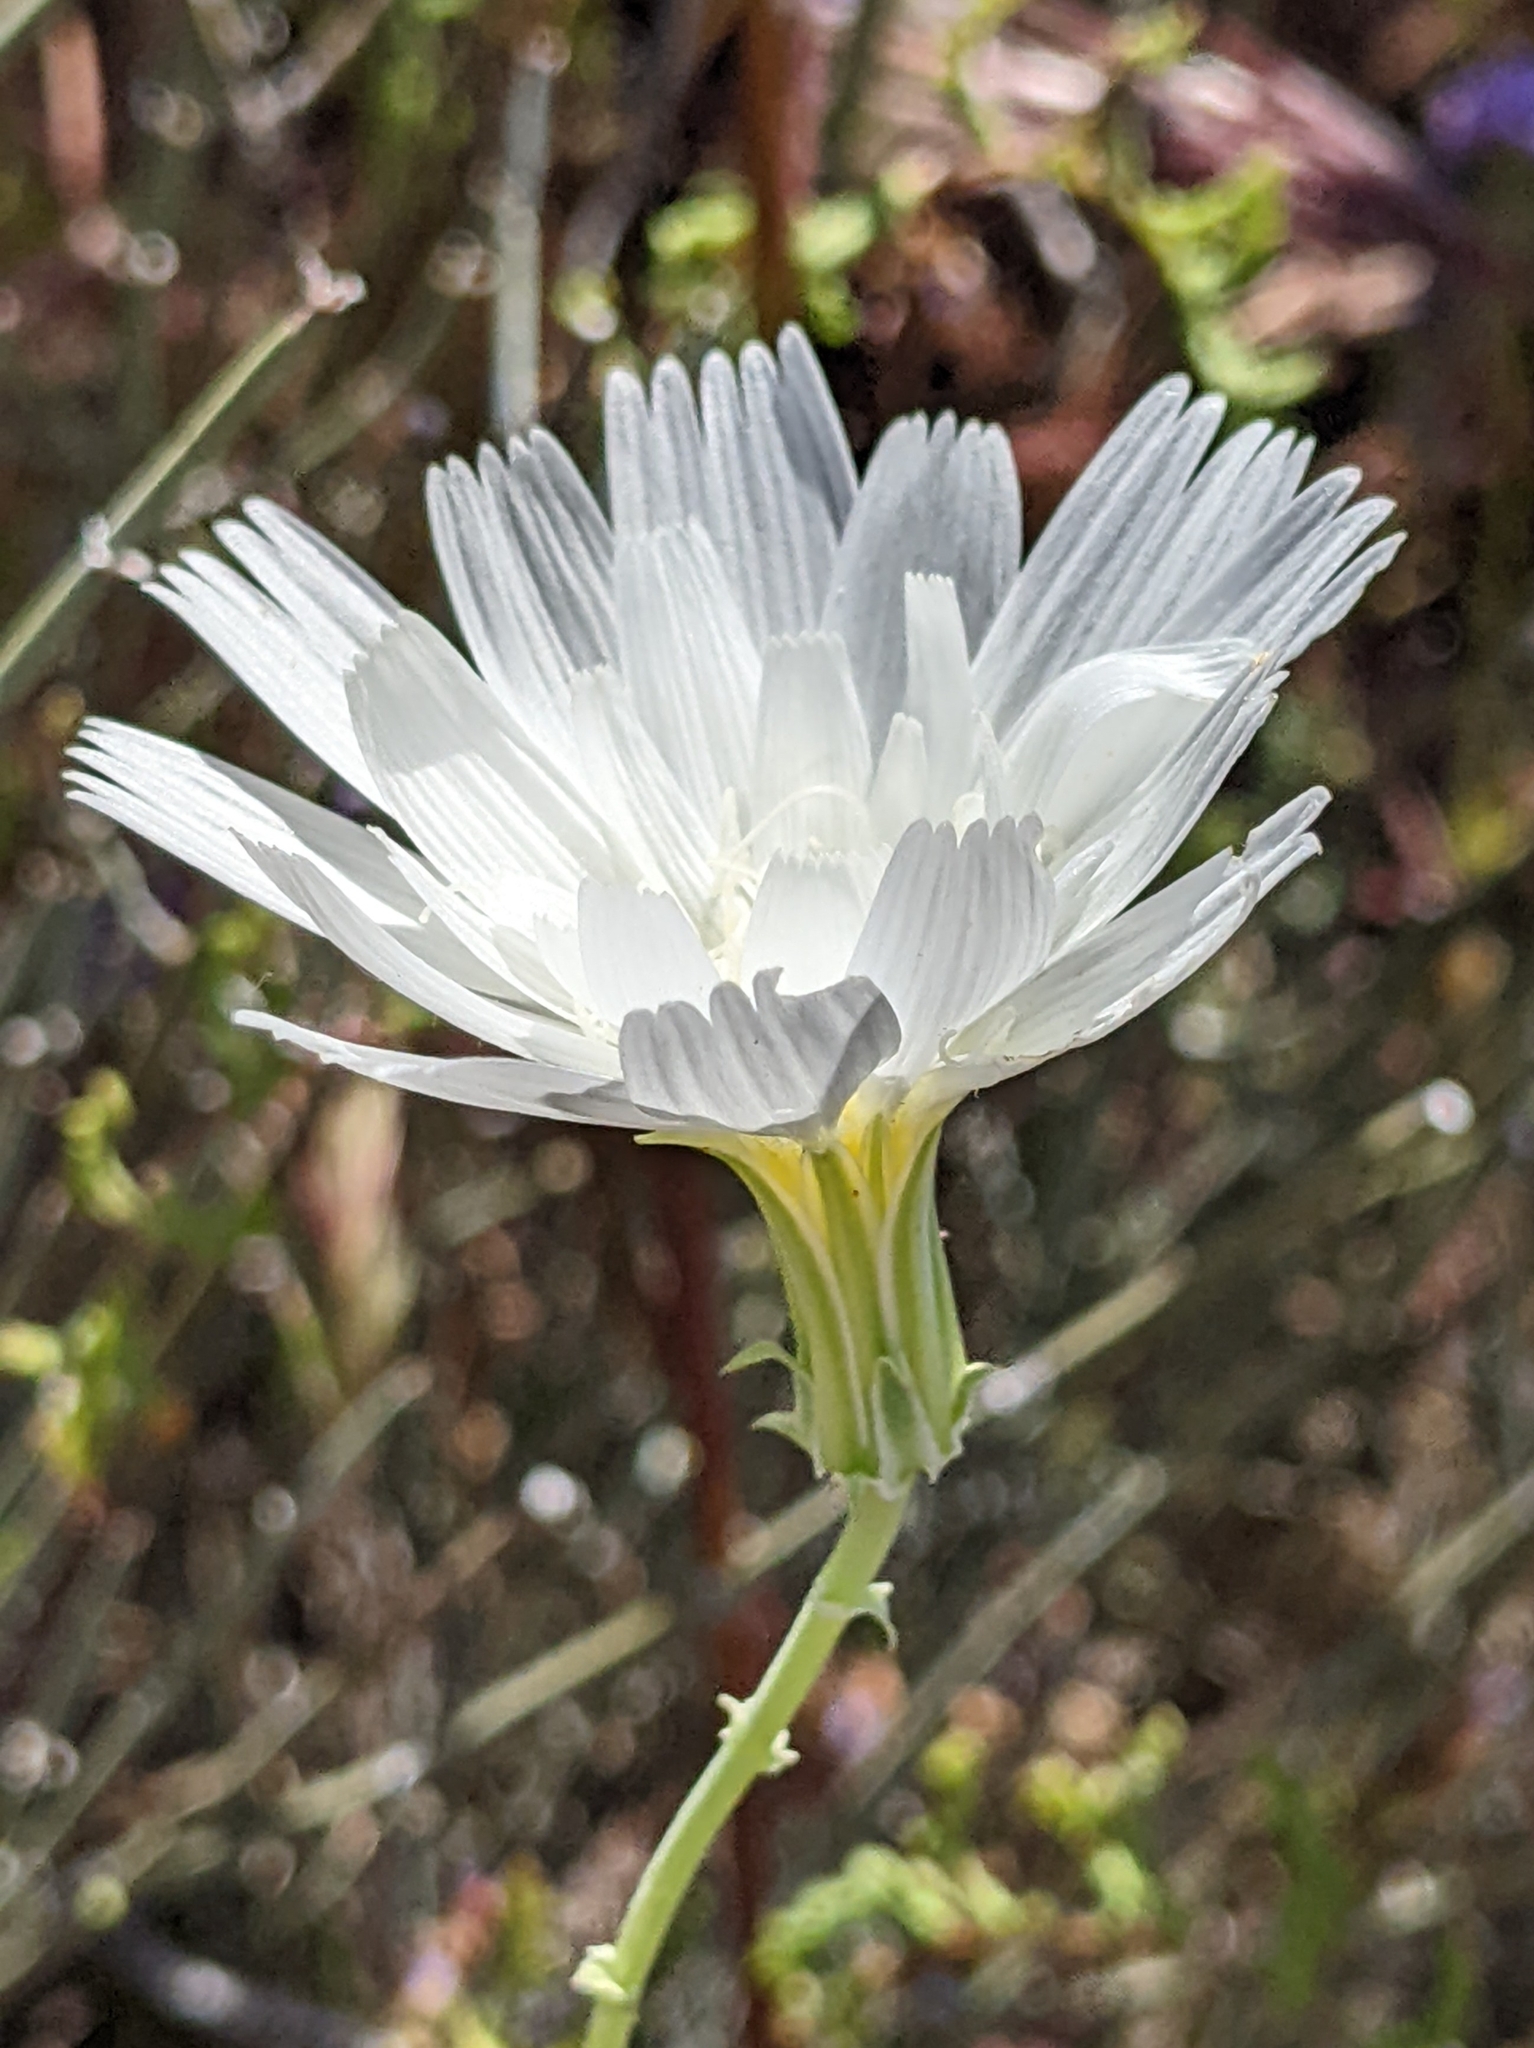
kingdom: Plantae
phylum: Tracheophyta
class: Magnoliopsida
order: Asterales
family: Asteraceae
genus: Rafinesquia
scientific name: Rafinesquia neomexicana
